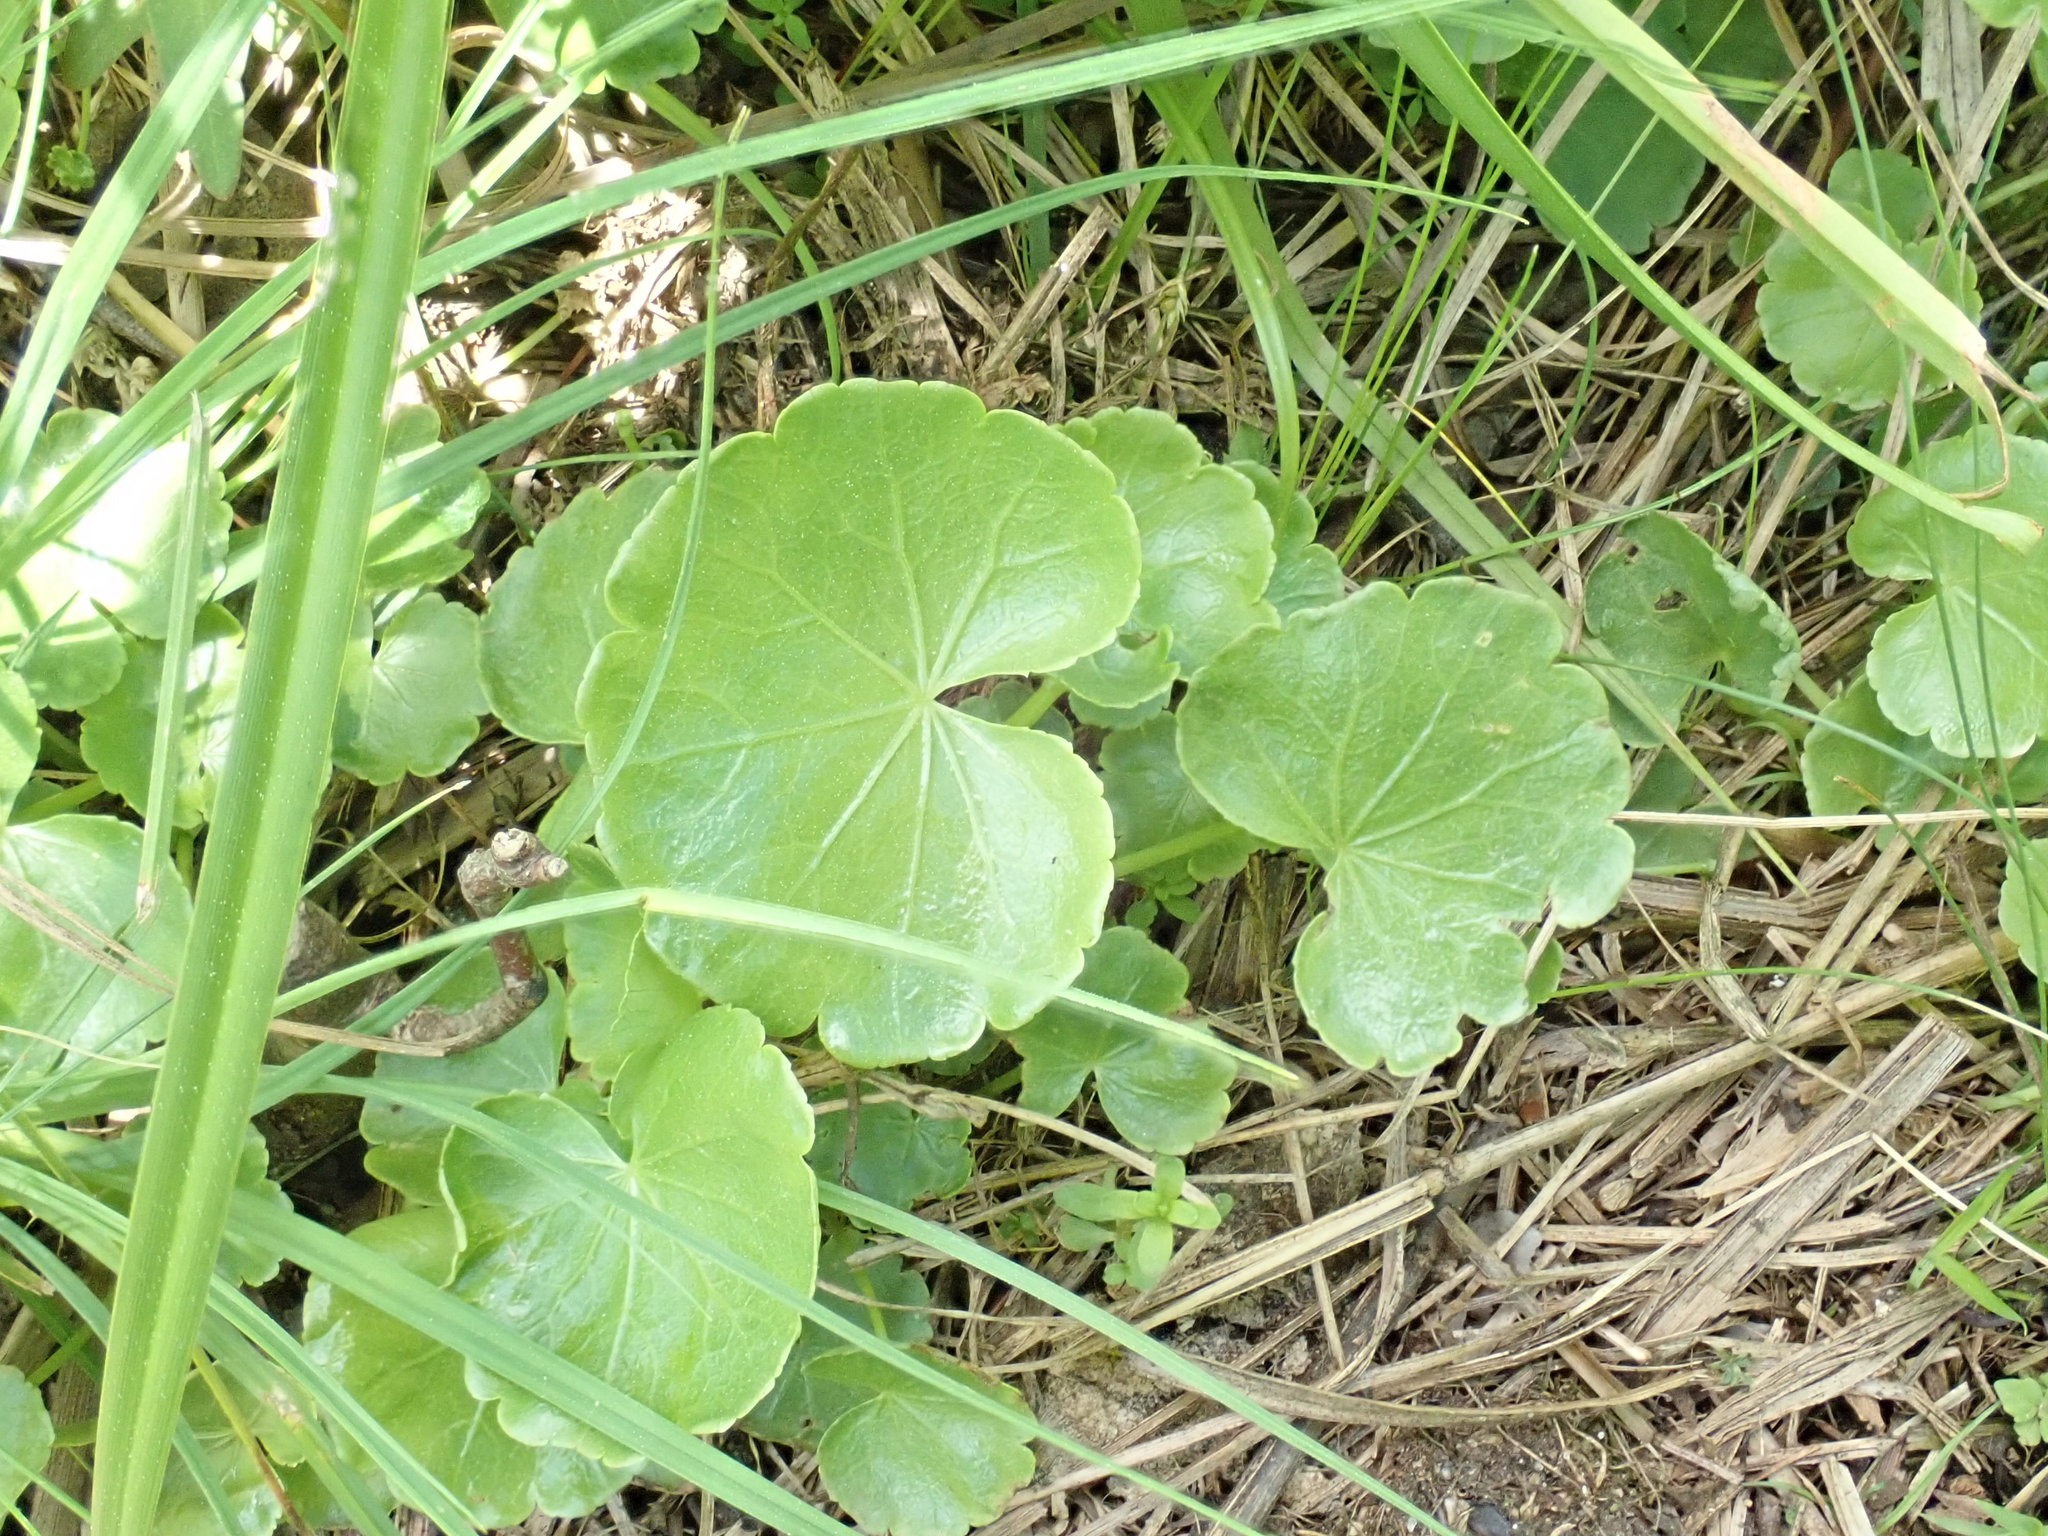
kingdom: Plantae
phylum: Tracheophyta
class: Magnoliopsida
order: Apiales
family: Araliaceae
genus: Hydrocotyle
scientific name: Hydrocotyle americana
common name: American water-pennywort
